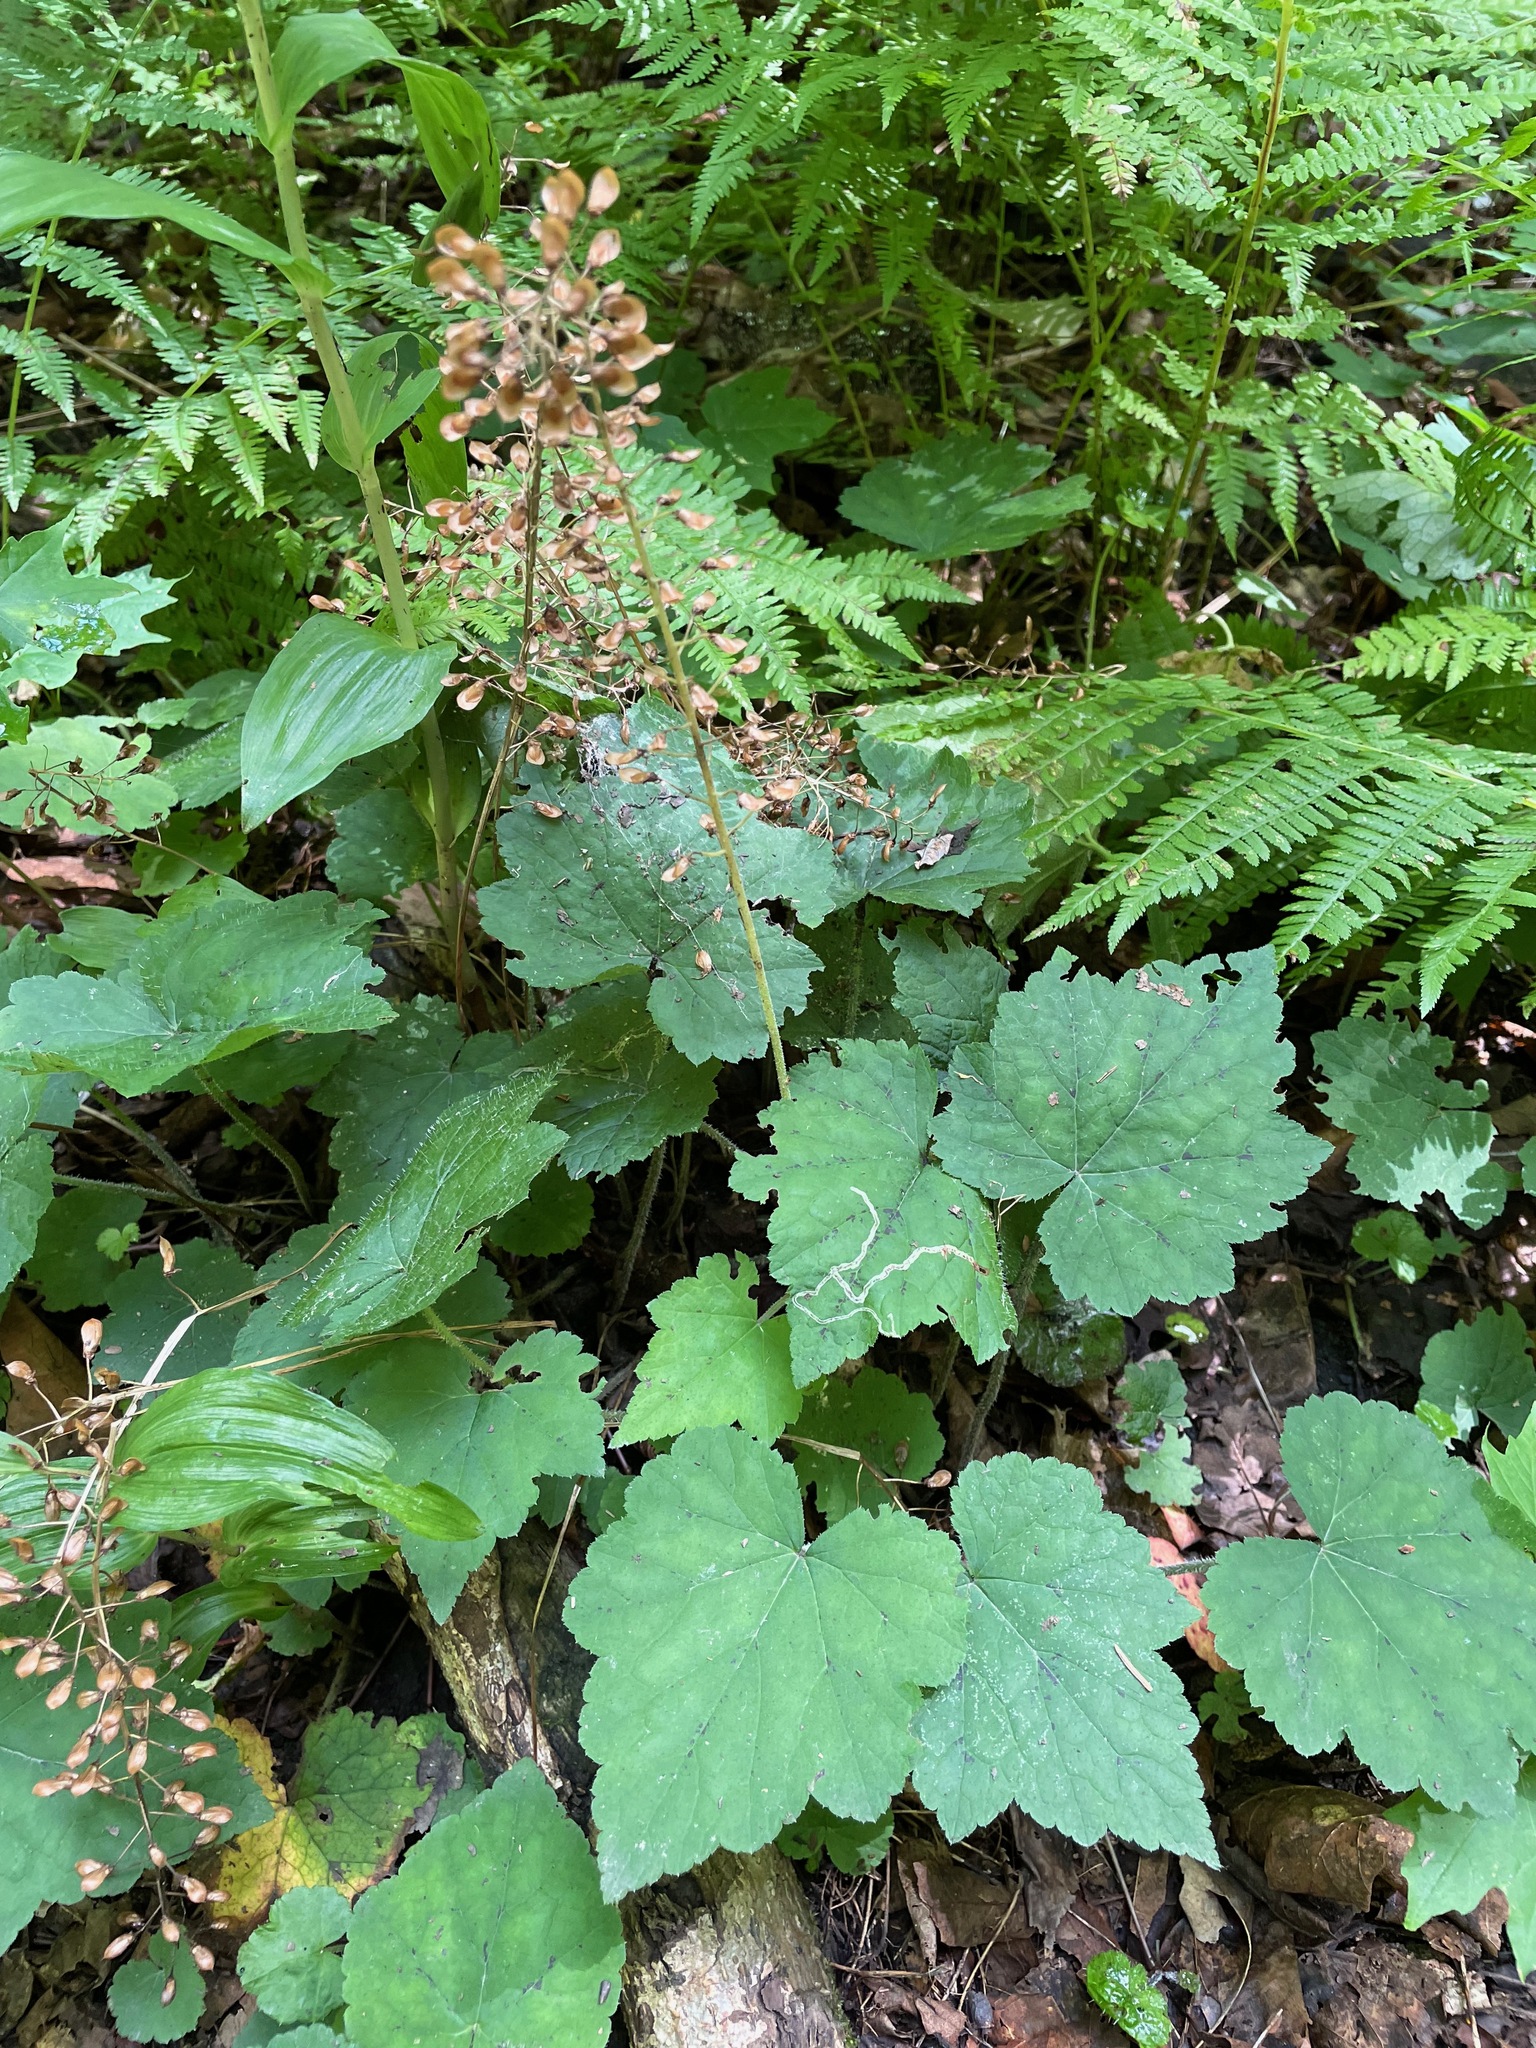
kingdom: Plantae
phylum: Tracheophyta
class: Magnoliopsida
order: Saxifragales
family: Saxifragaceae
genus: Tiarella
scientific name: Tiarella stolonifera
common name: Stoloniferous foamflower
